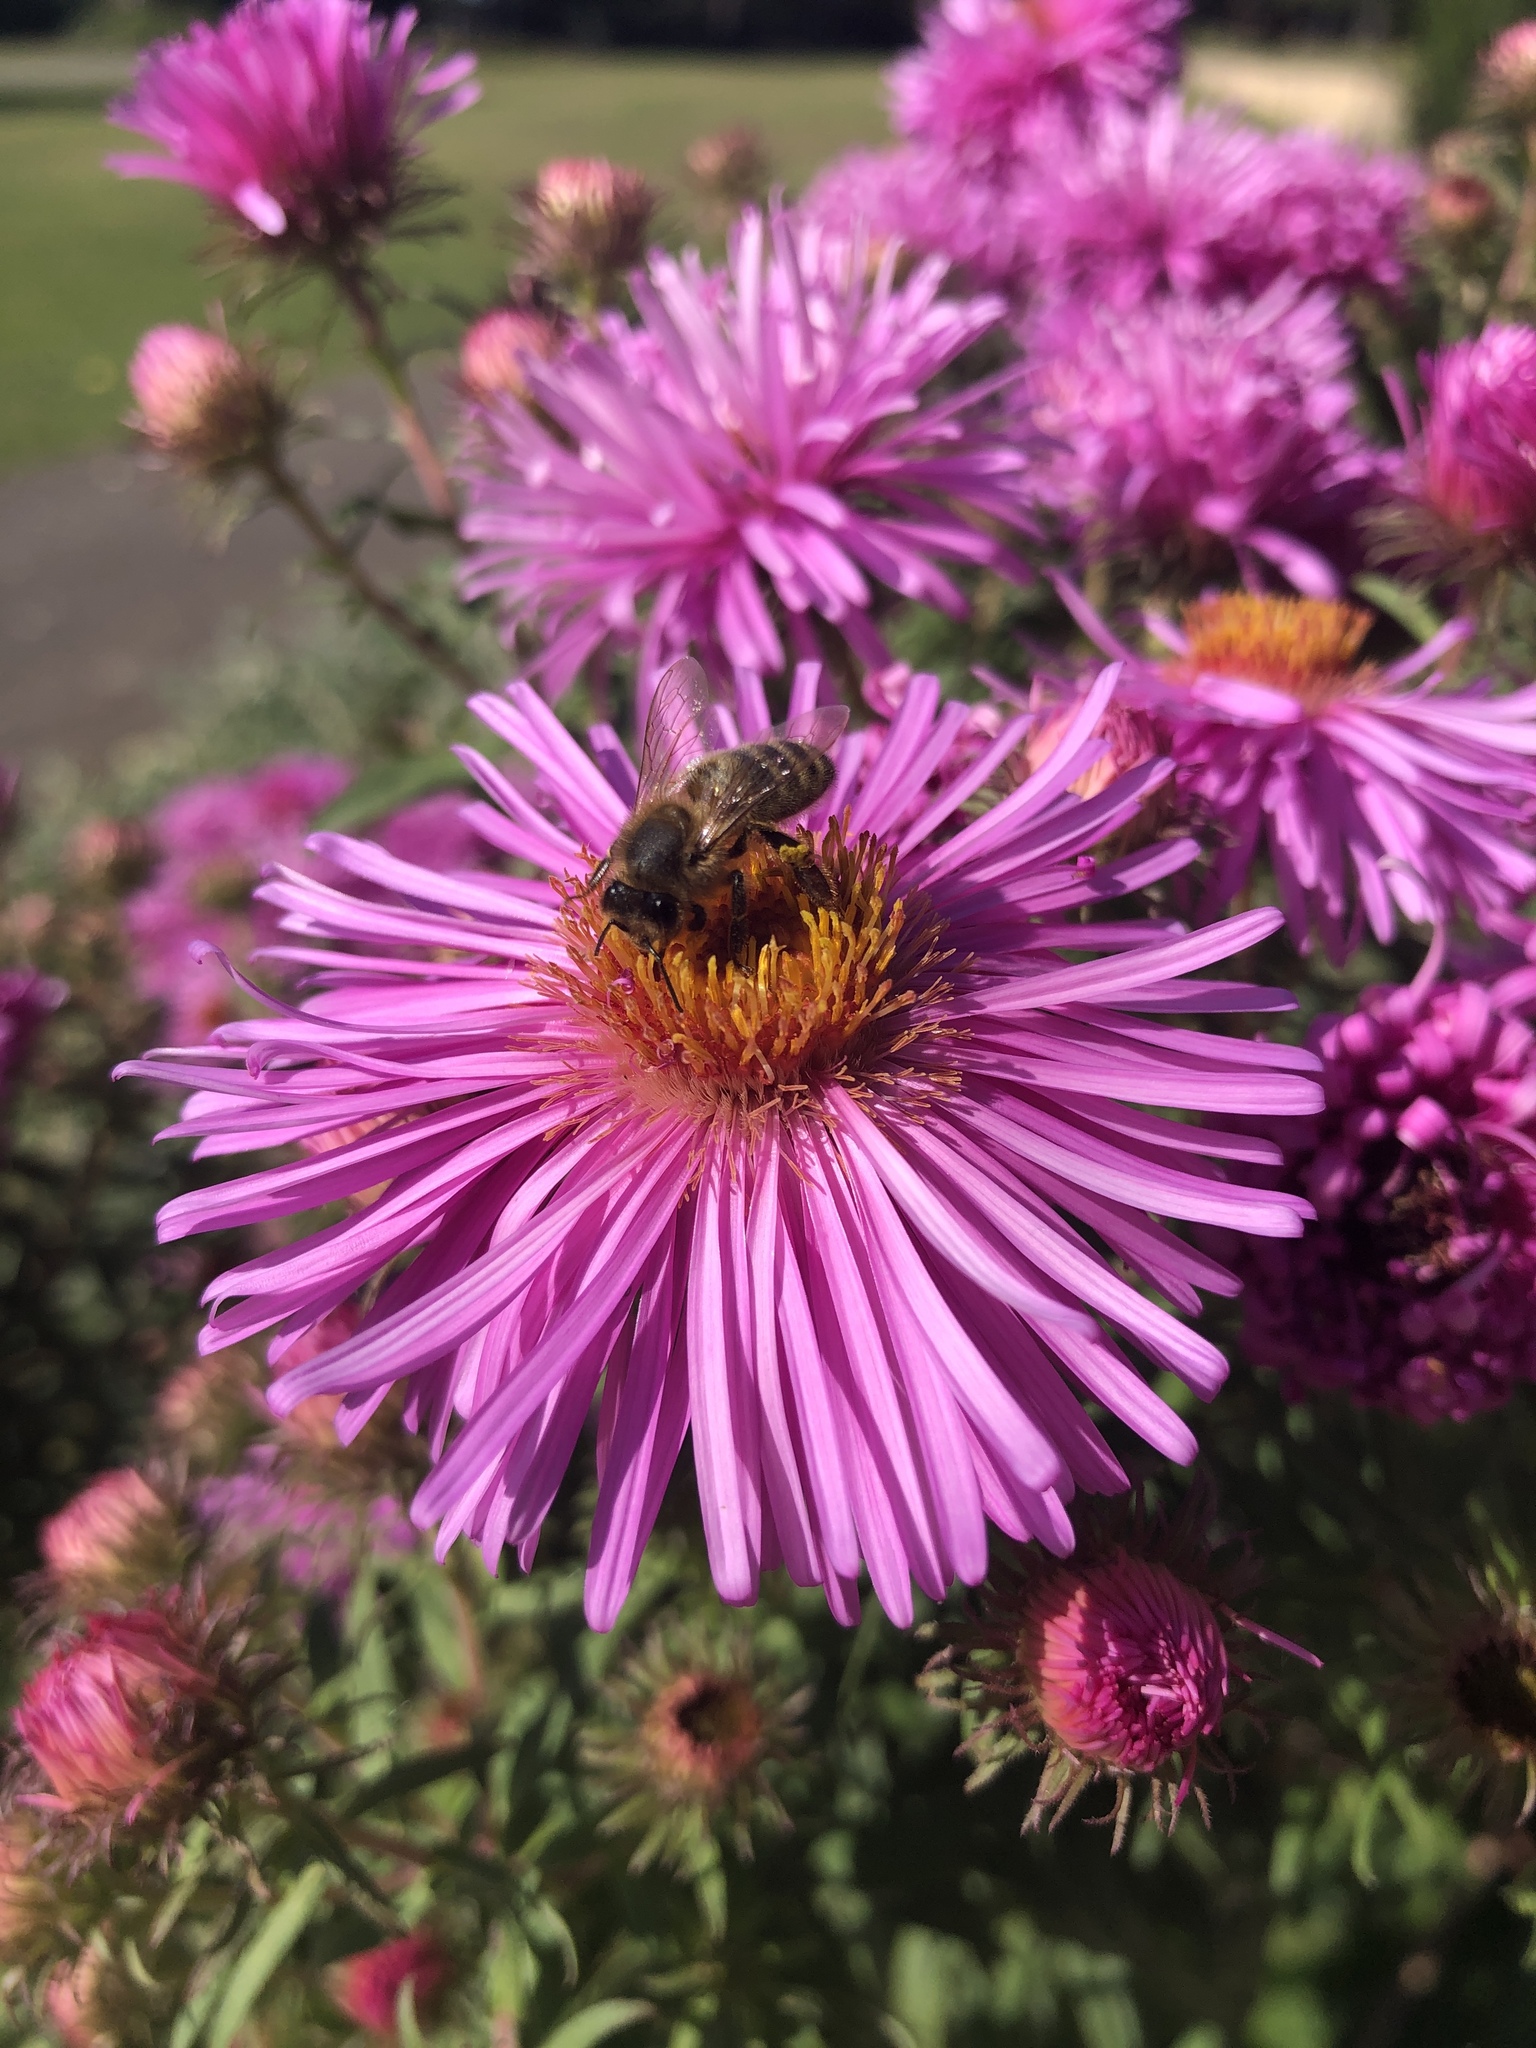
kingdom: Animalia
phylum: Arthropoda
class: Insecta
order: Hymenoptera
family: Apidae
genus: Apis
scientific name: Apis mellifera
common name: Honey bee
